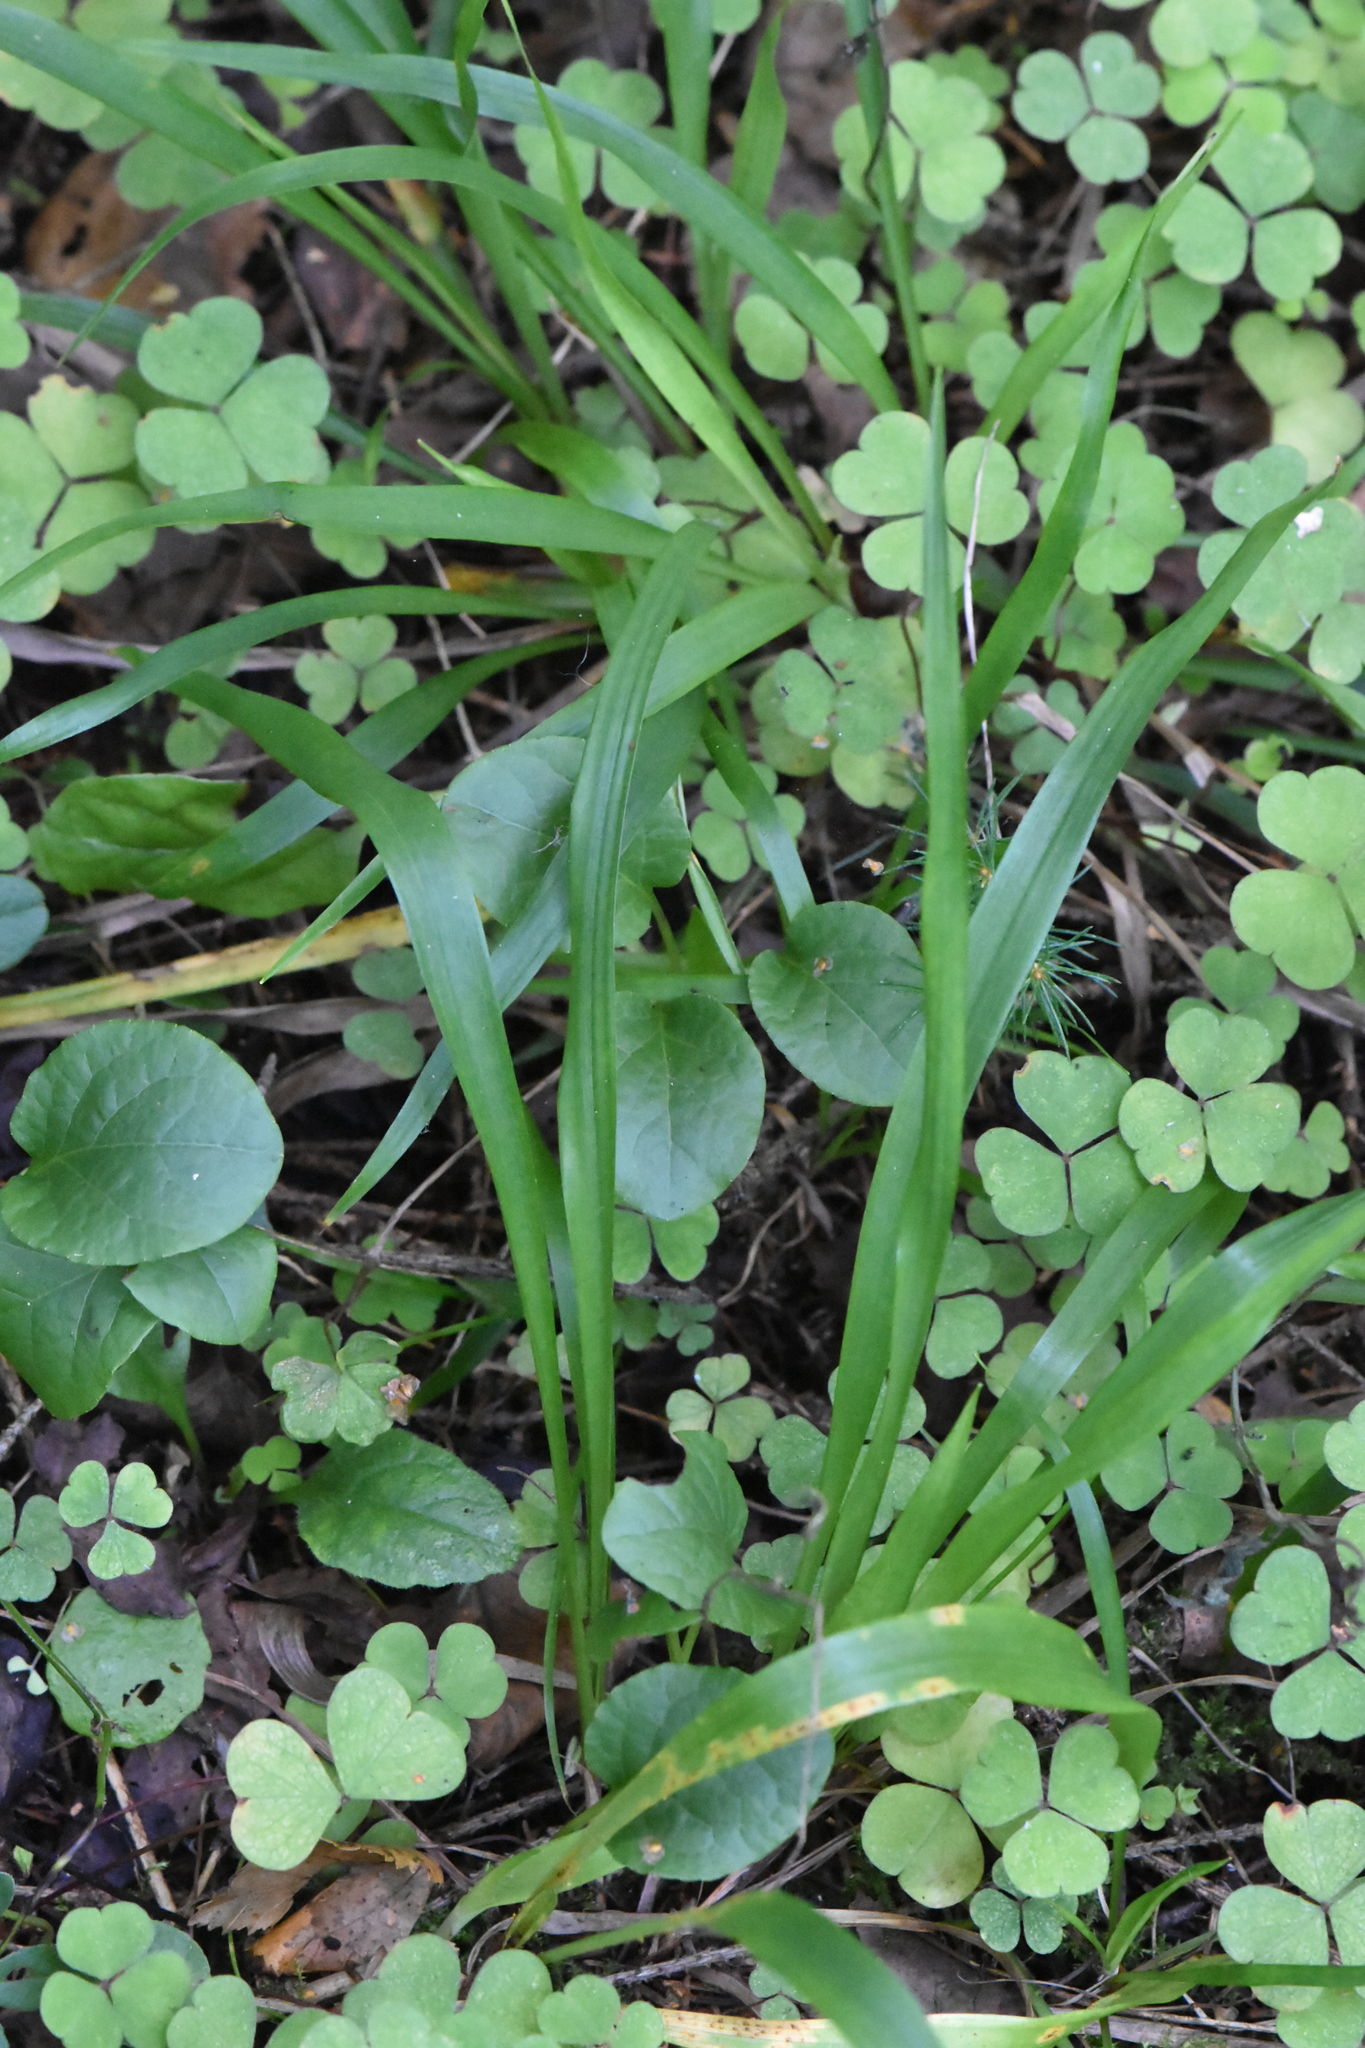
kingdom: Plantae
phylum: Tracheophyta
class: Liliopsida
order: Poales
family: Juncaceae
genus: Luzula
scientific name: Luzula pilosa
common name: Hairy wood-rush
